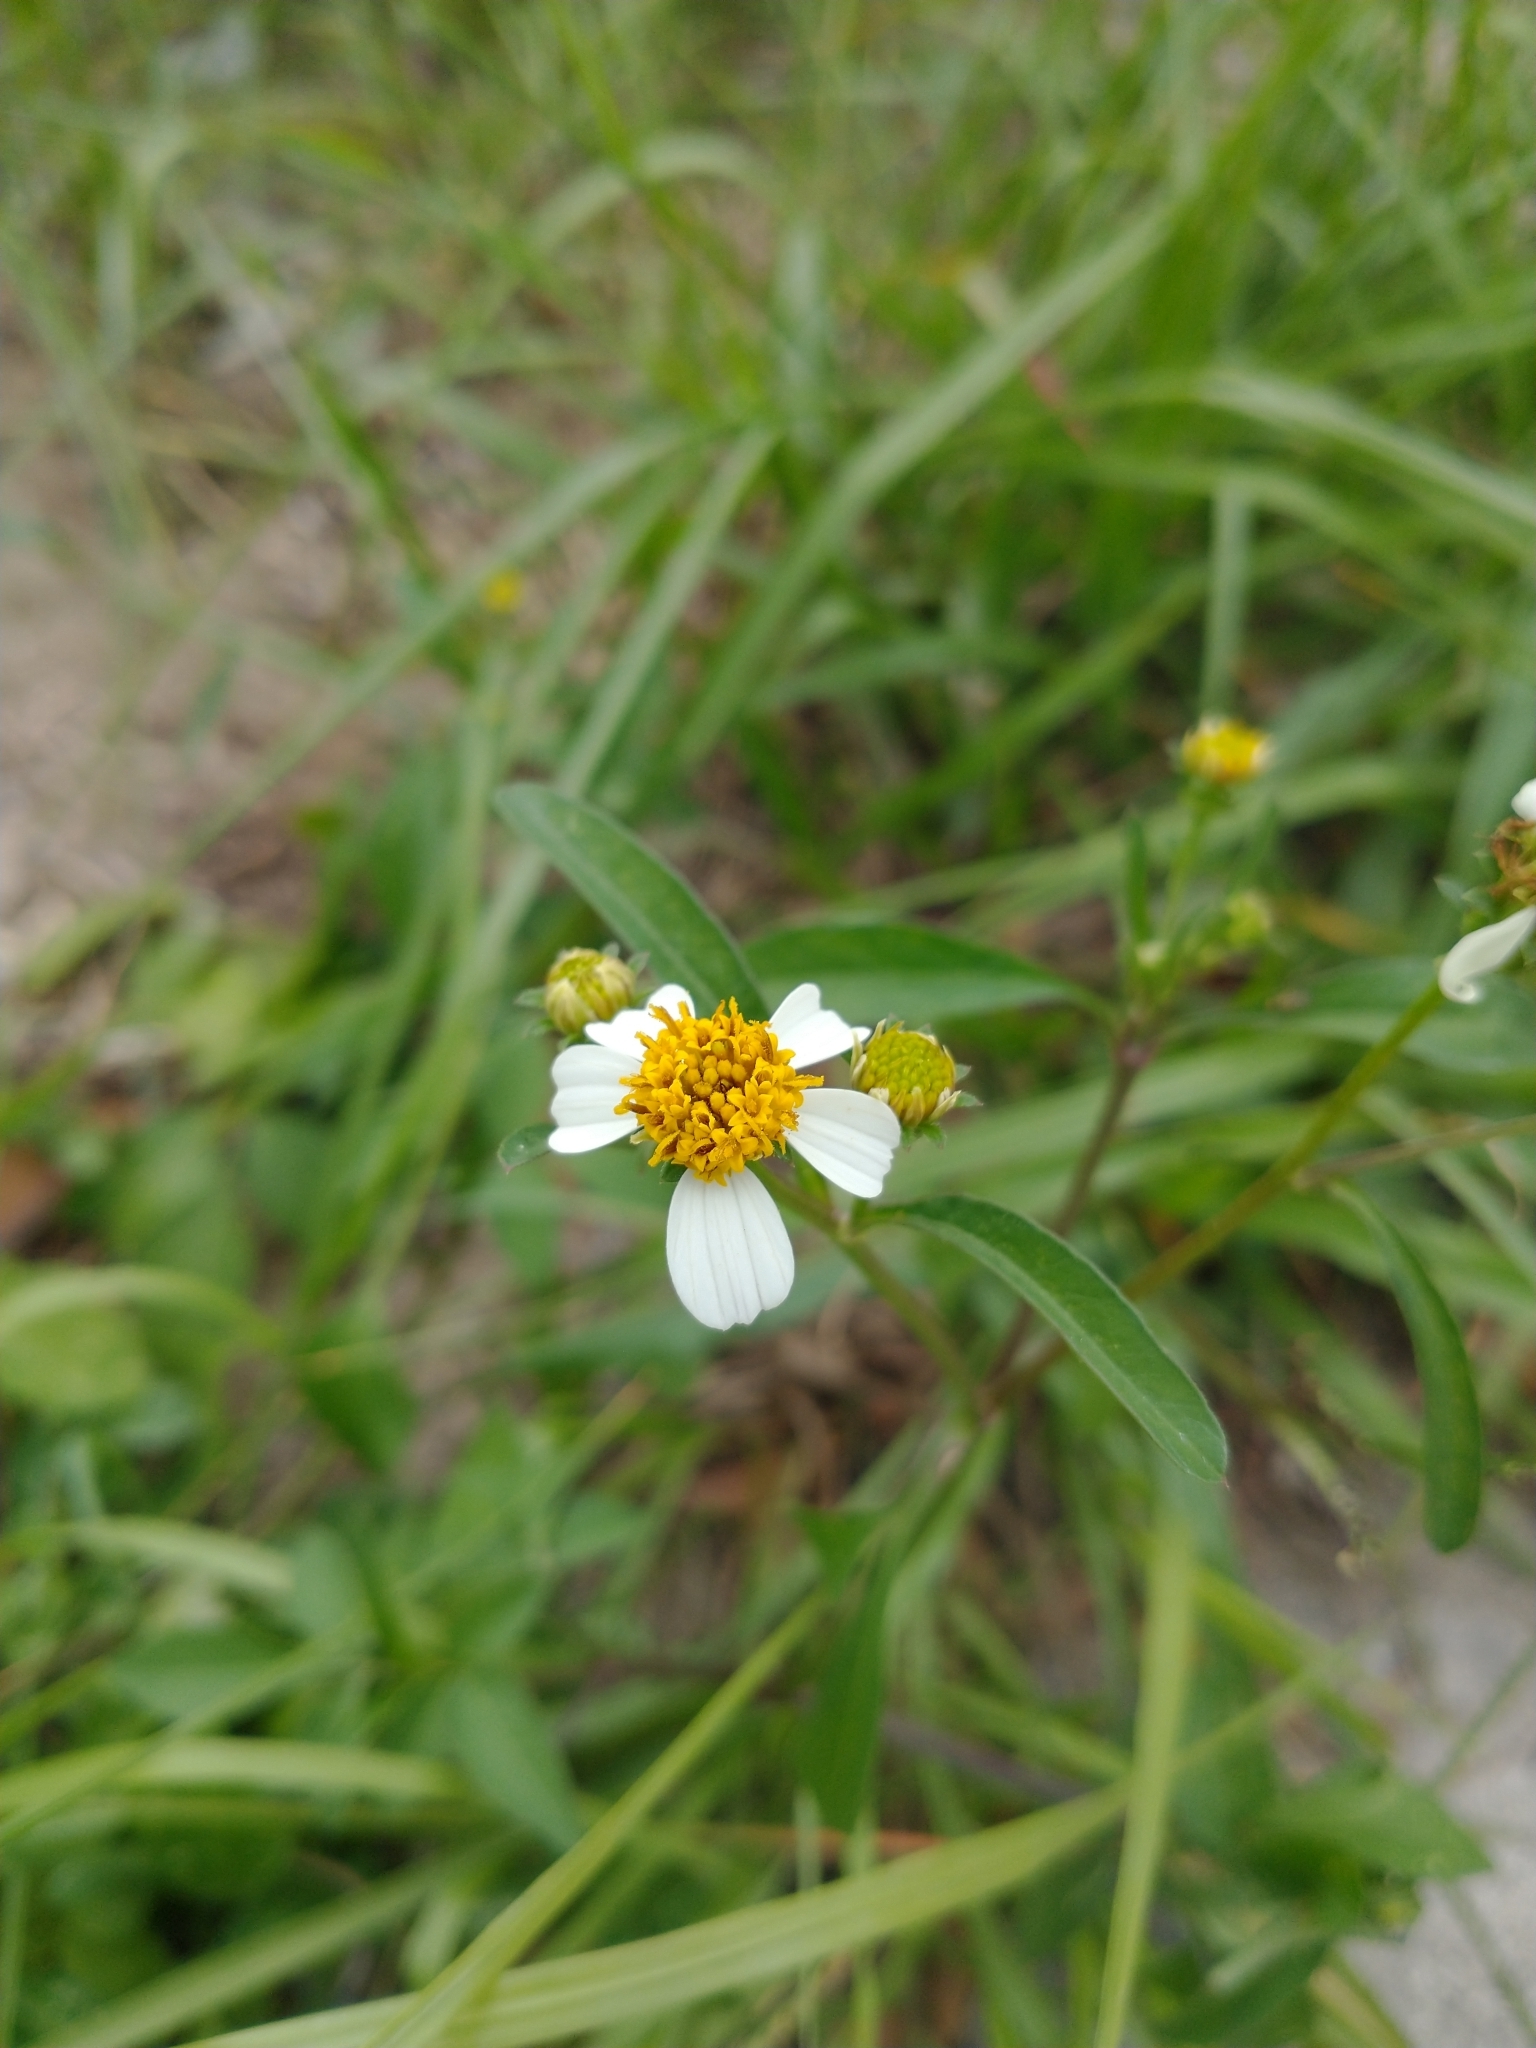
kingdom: Plantae
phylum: Tracheophyta
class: Magnoliopsida
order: Asterales
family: Asteraceae
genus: Bidens
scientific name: Bidens alba
